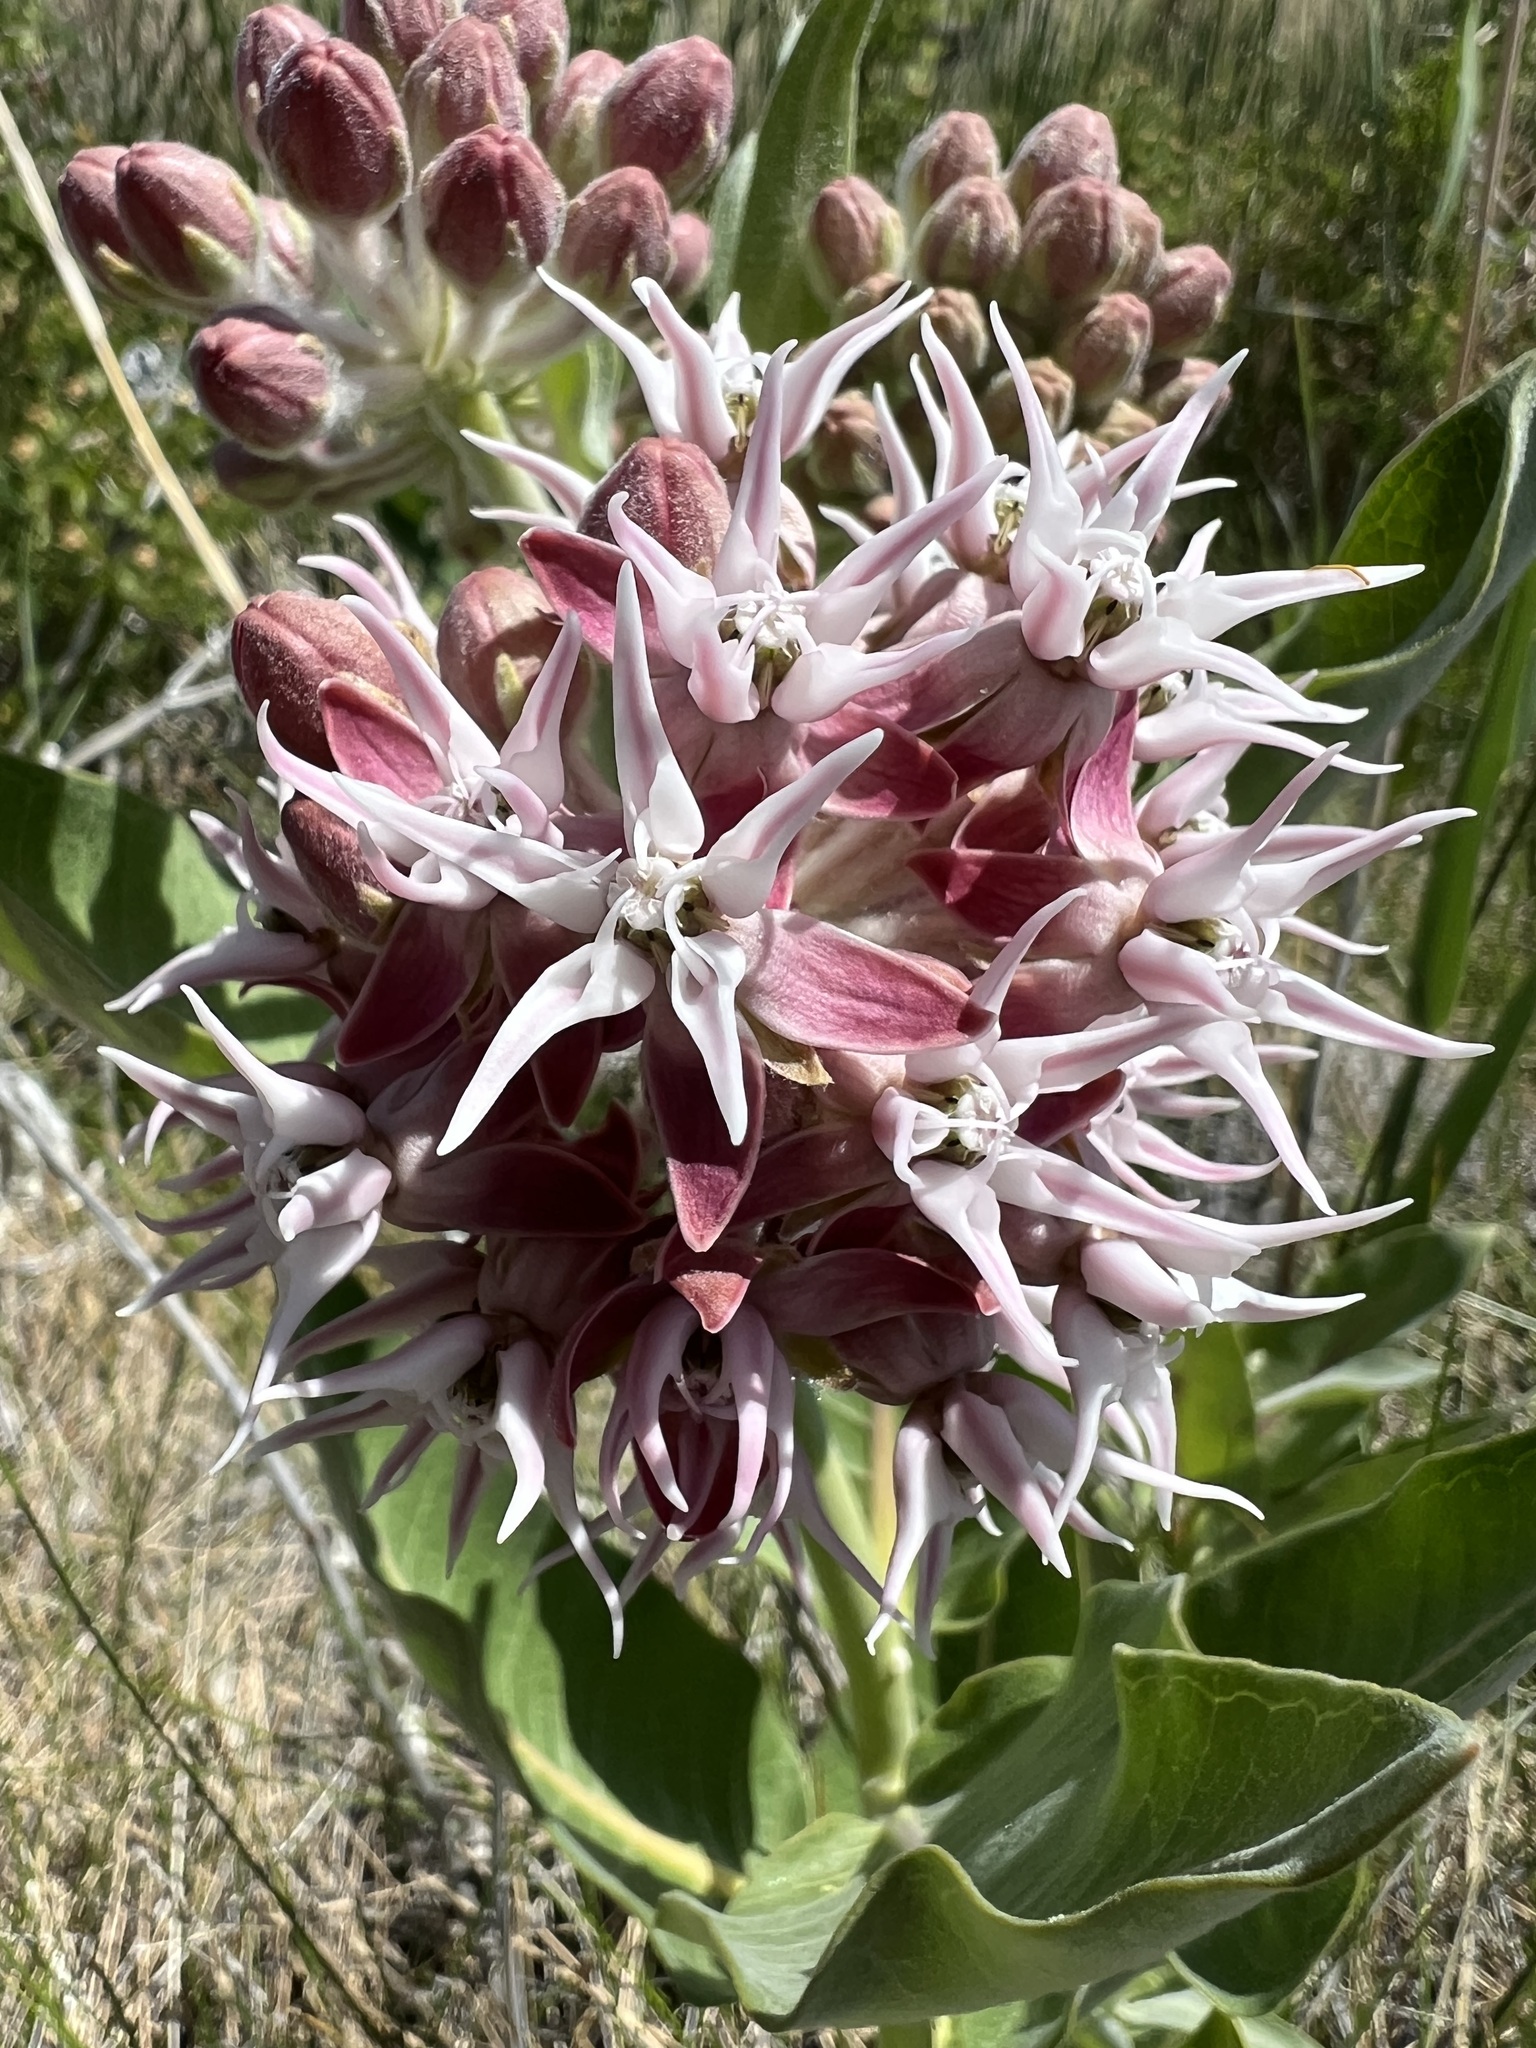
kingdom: Plantae
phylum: Tracheophyta
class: Magnoliopsida
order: Gentianales
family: Apocynaceae
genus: Asclepias
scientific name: Asclepias speciosa
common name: Showy milkweed
